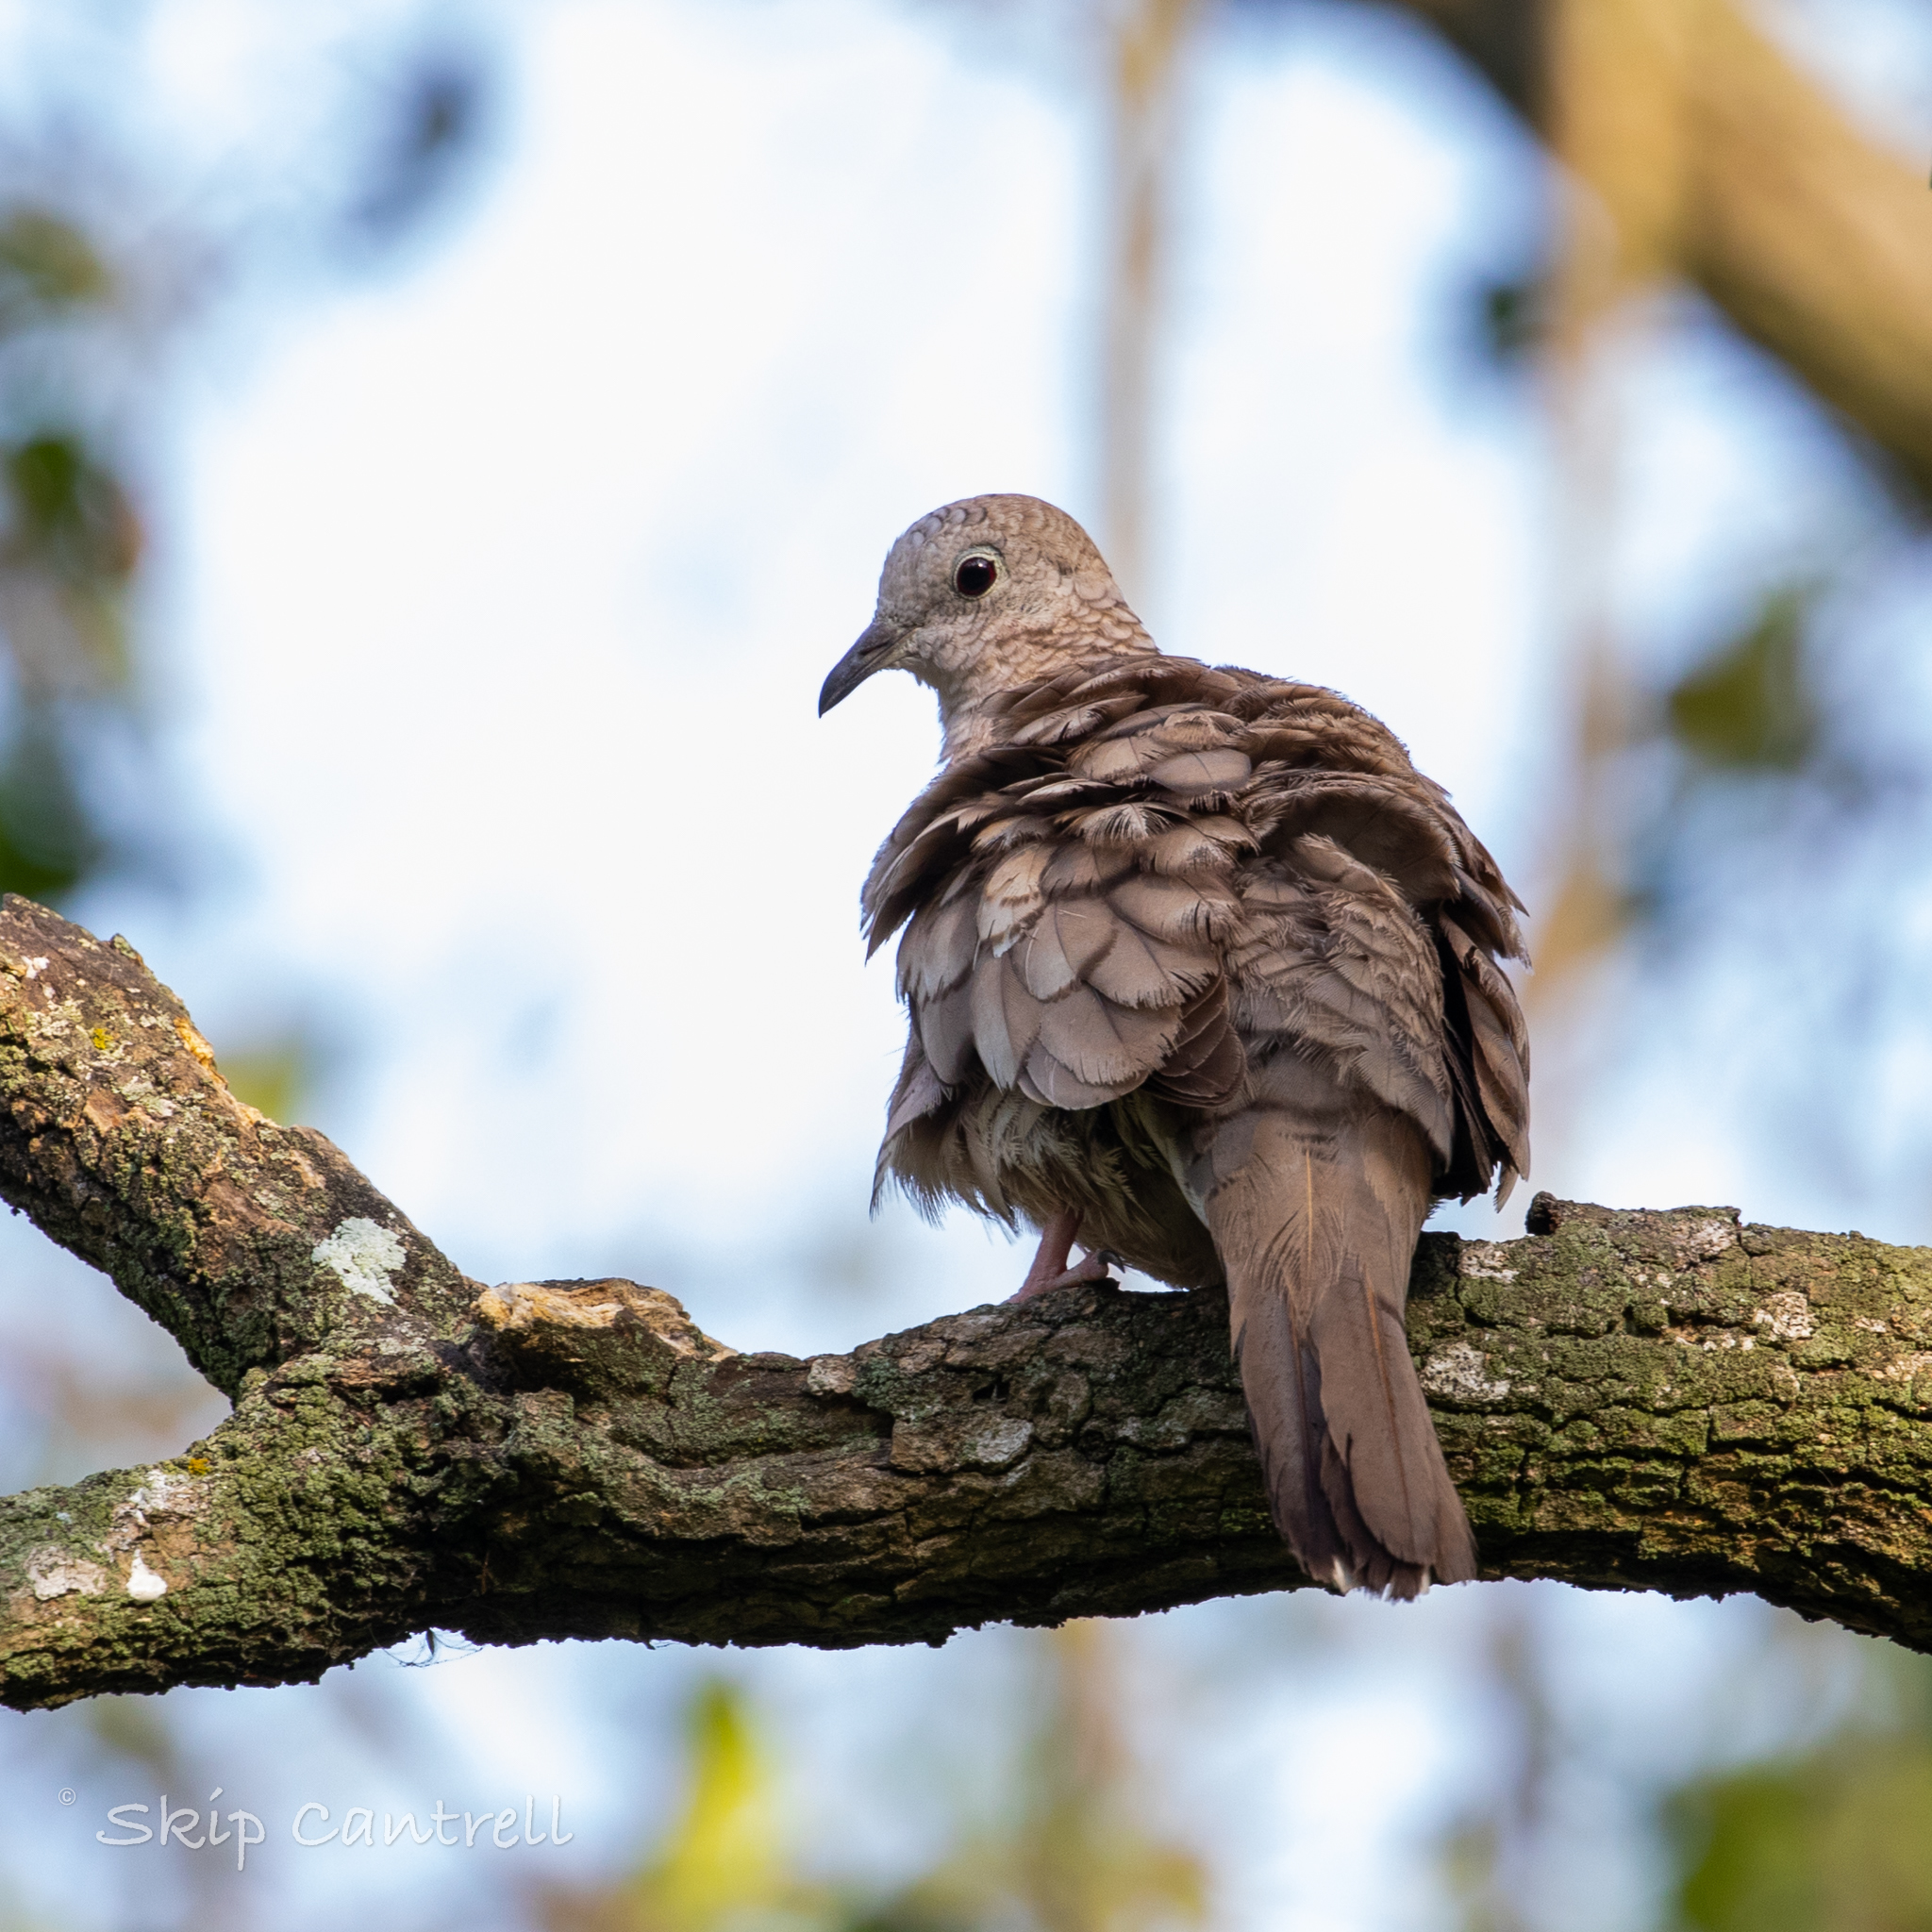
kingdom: Animalia
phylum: Chordata
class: Aves
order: Columbiformes
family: Columbidae
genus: Columbina
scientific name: Columbina inca
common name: Inca dove
